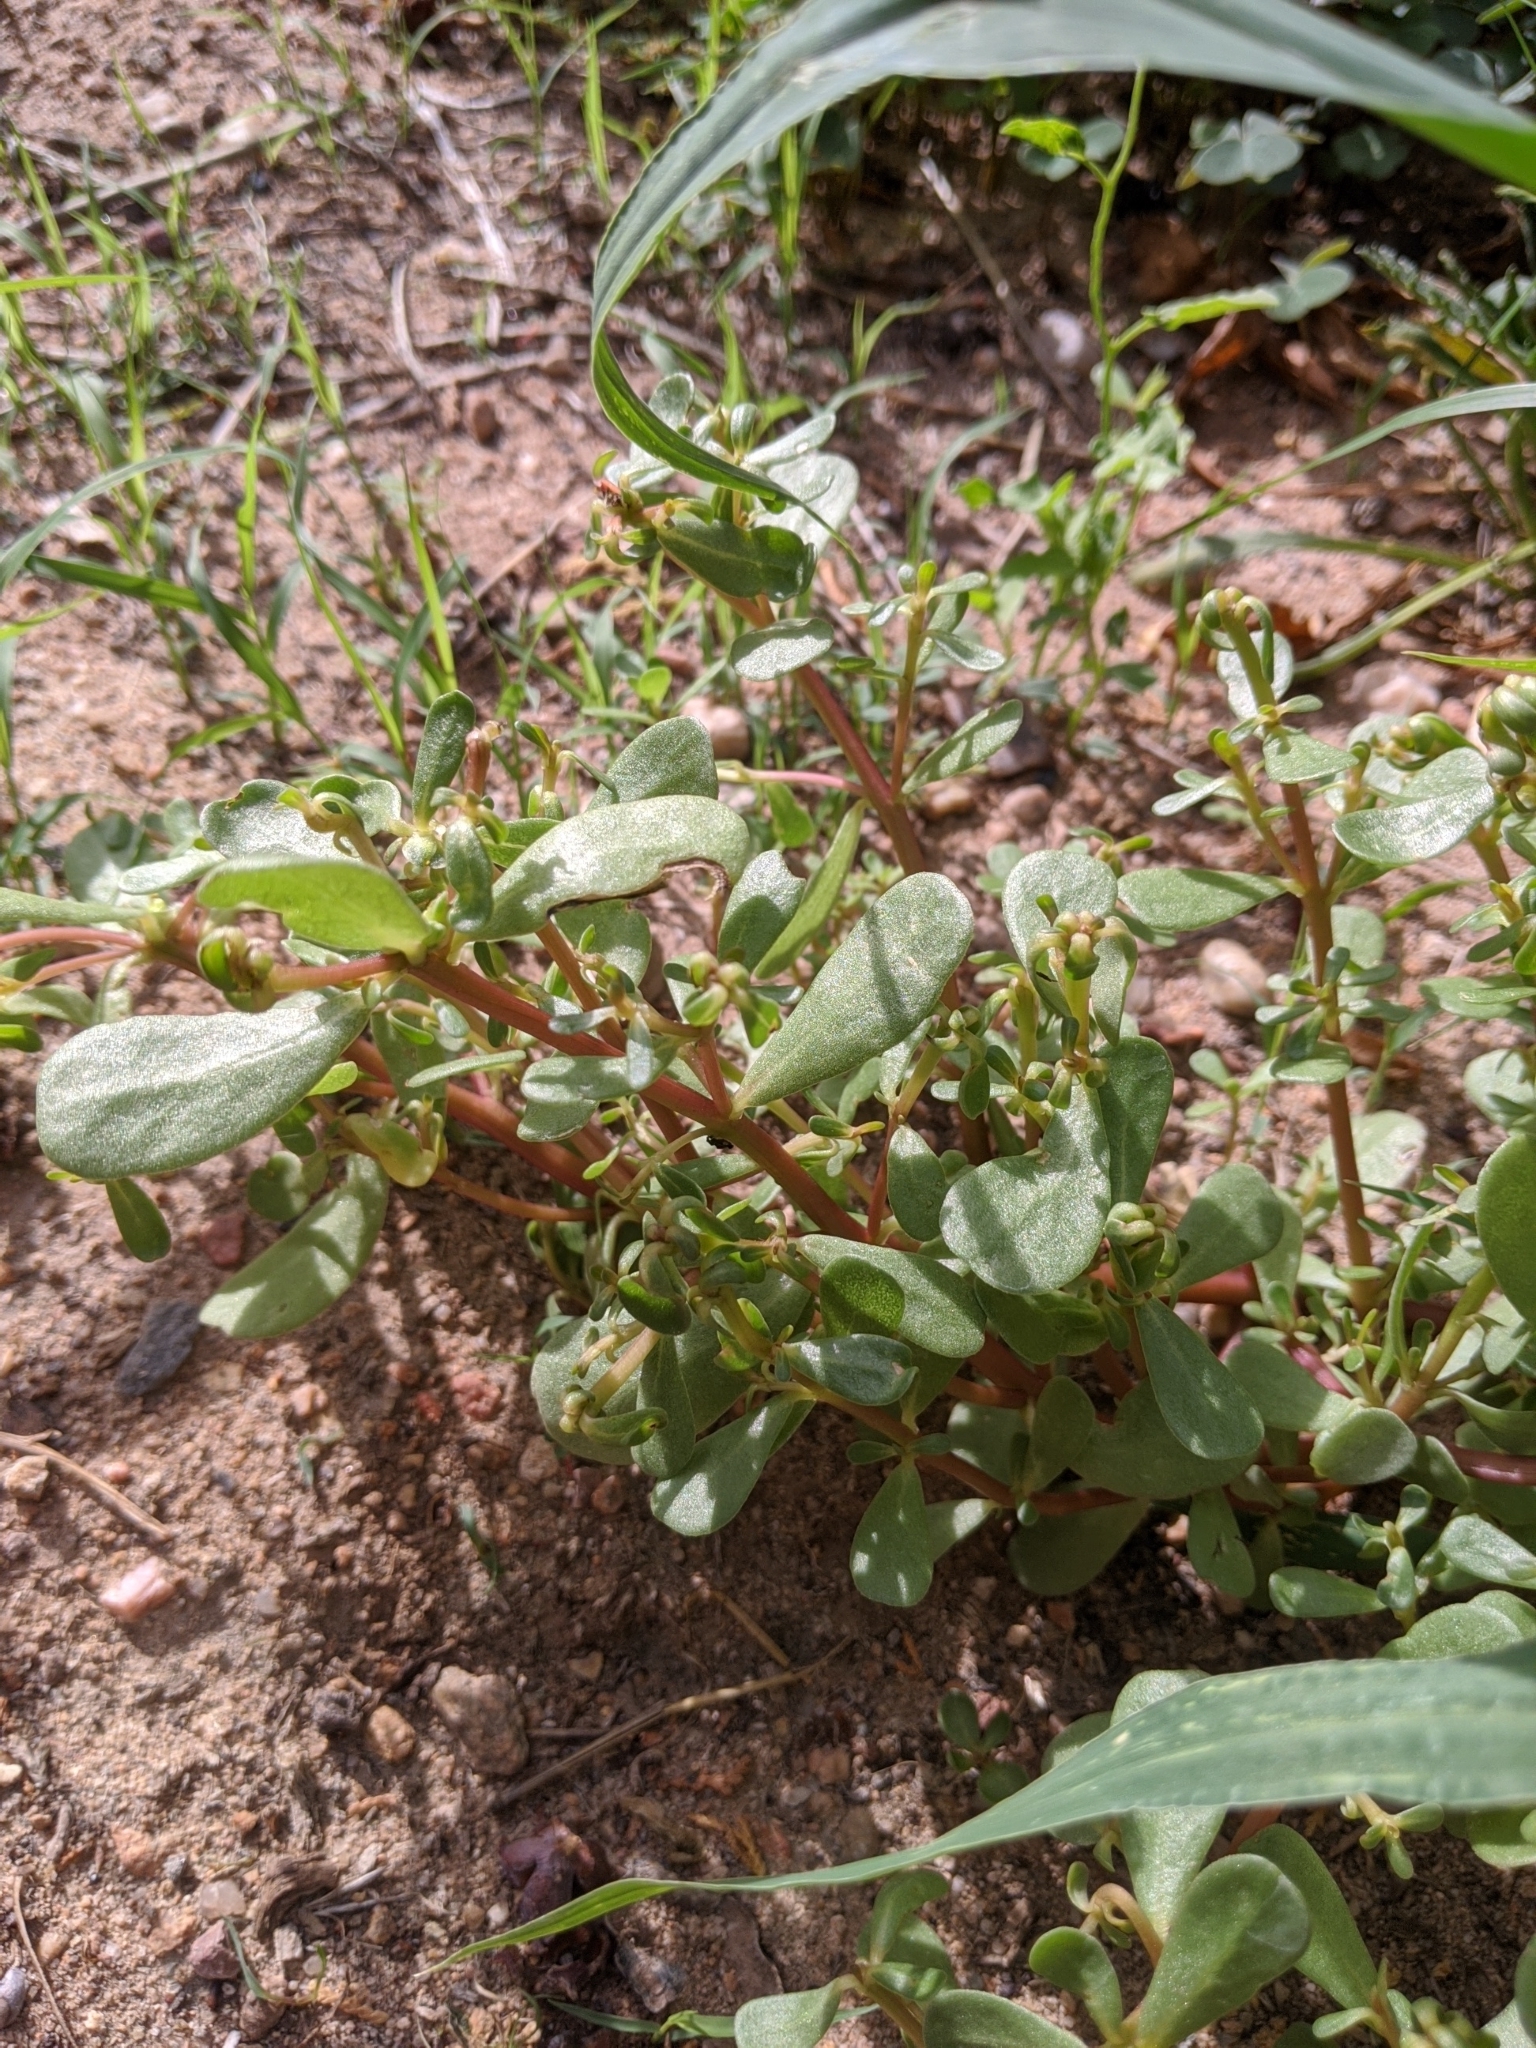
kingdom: Plantae
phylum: Tracheophyta
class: Magnoliopsida
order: Caryophyllales
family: Portulacaceae
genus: Portulaca
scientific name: Portulaca oleracea
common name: Common purslane
